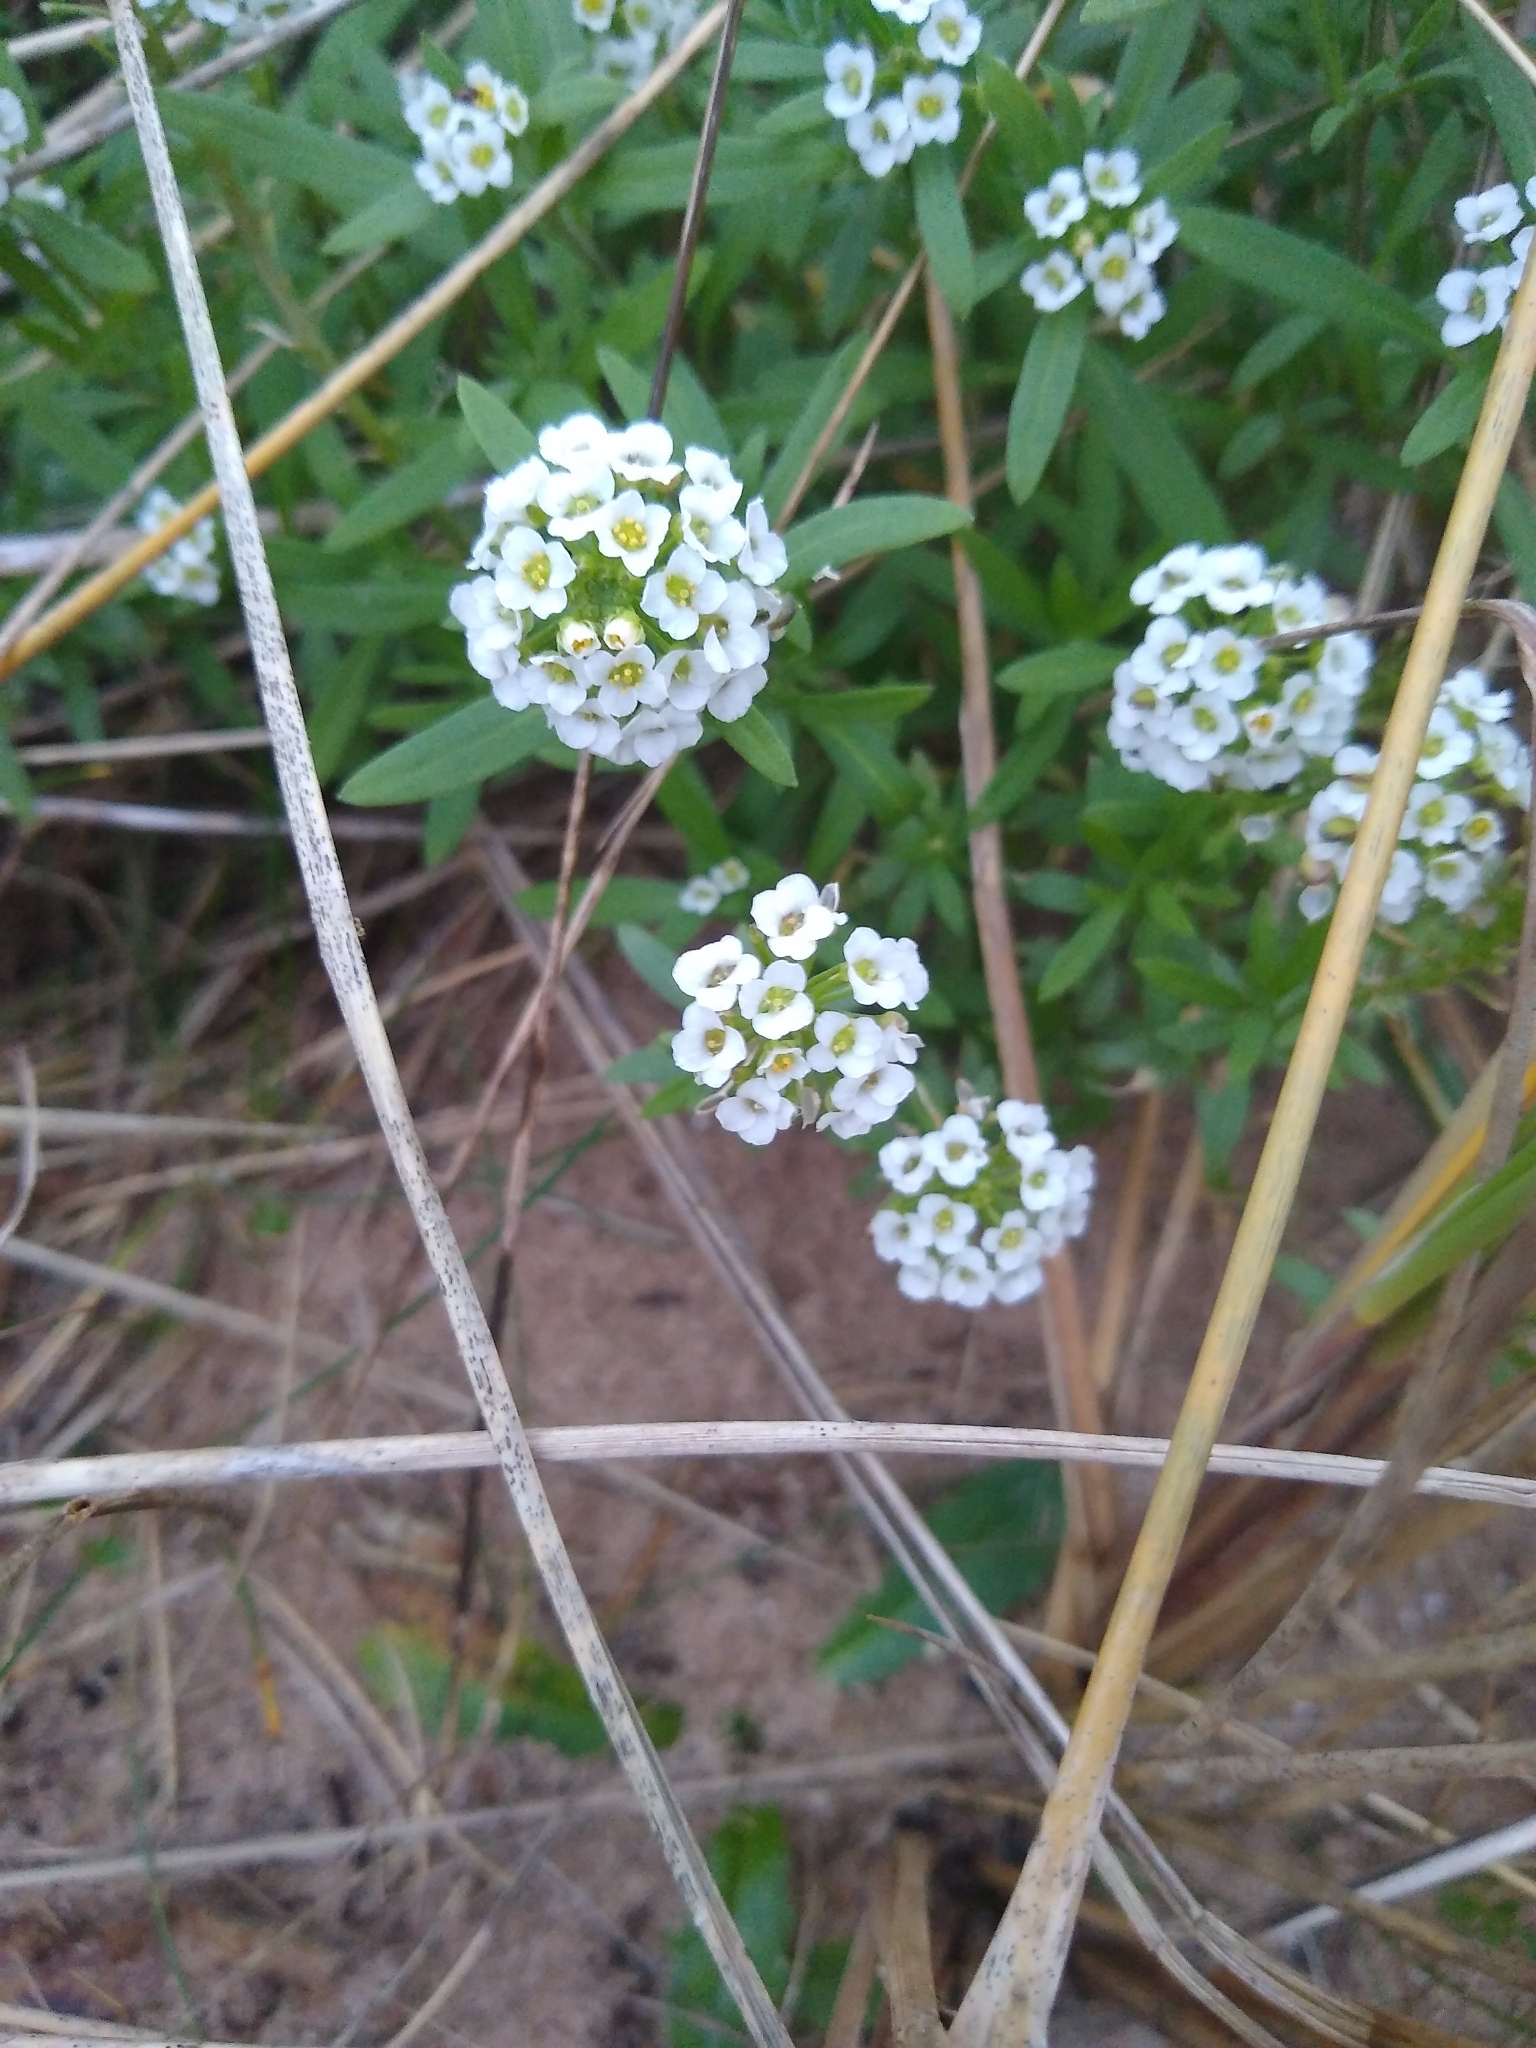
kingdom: Plantae
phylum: Tracheophyta
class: Magnoliopsida
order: Brassicales
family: Brassicaceae
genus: Lobularia
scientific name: Lobularia maritima
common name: Sweet alison
